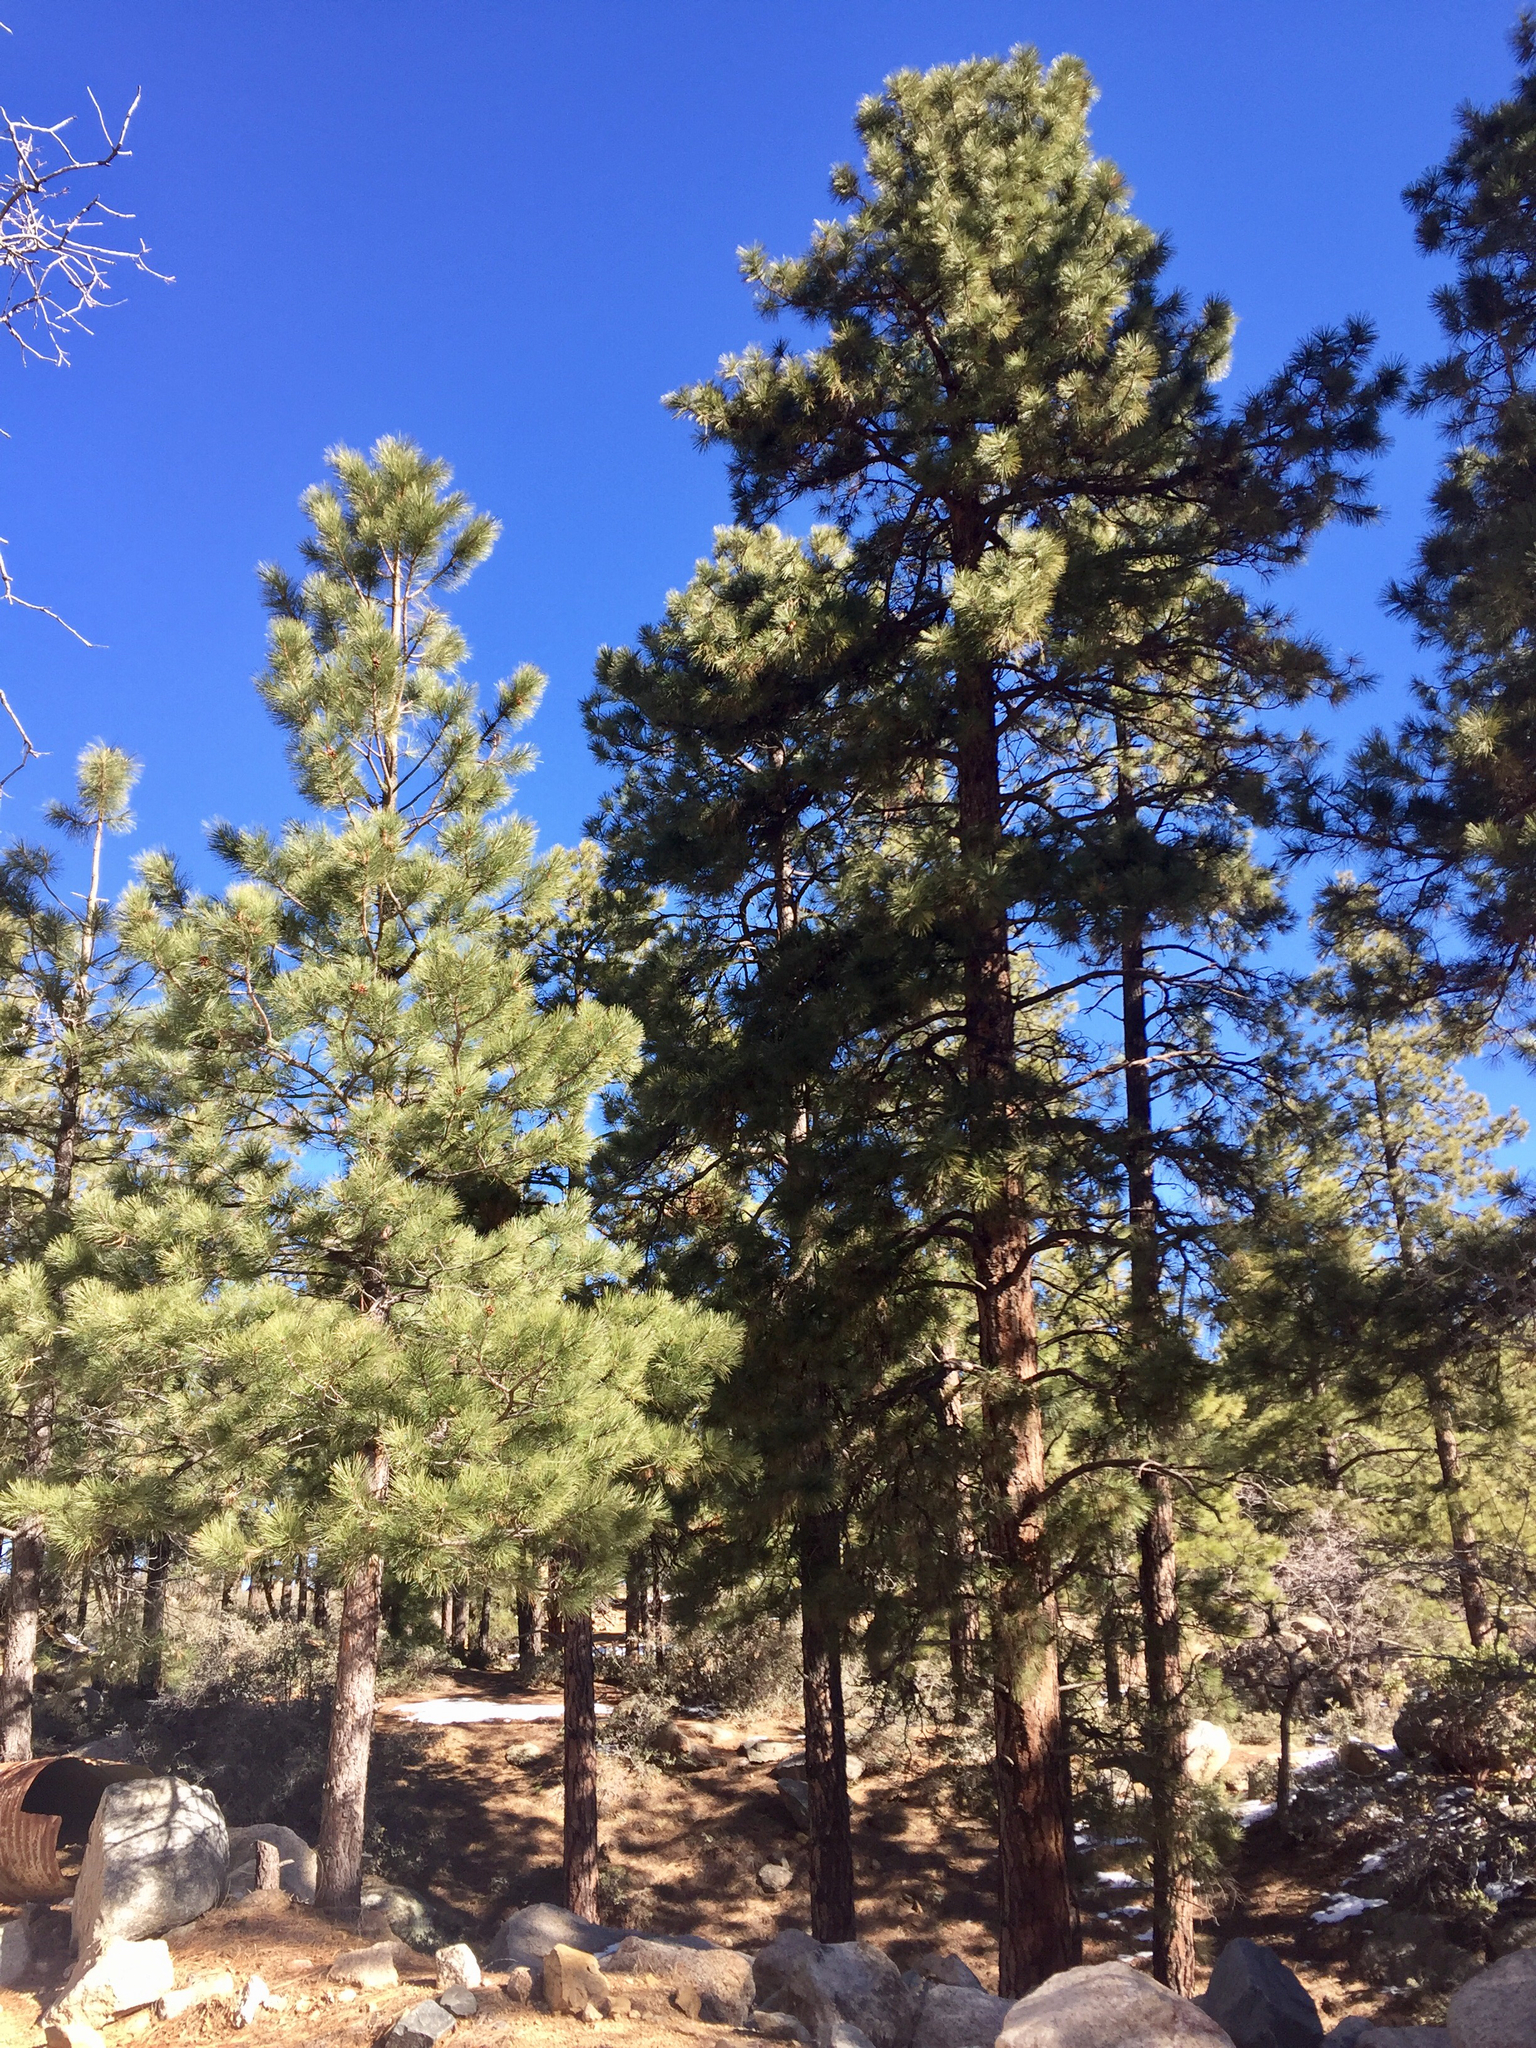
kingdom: Plantae
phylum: Tracheophyta
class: Pinopsida
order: Pinales
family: Pinaceae
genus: Pinus
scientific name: Pinus ponderosa
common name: Western yellow-pine
